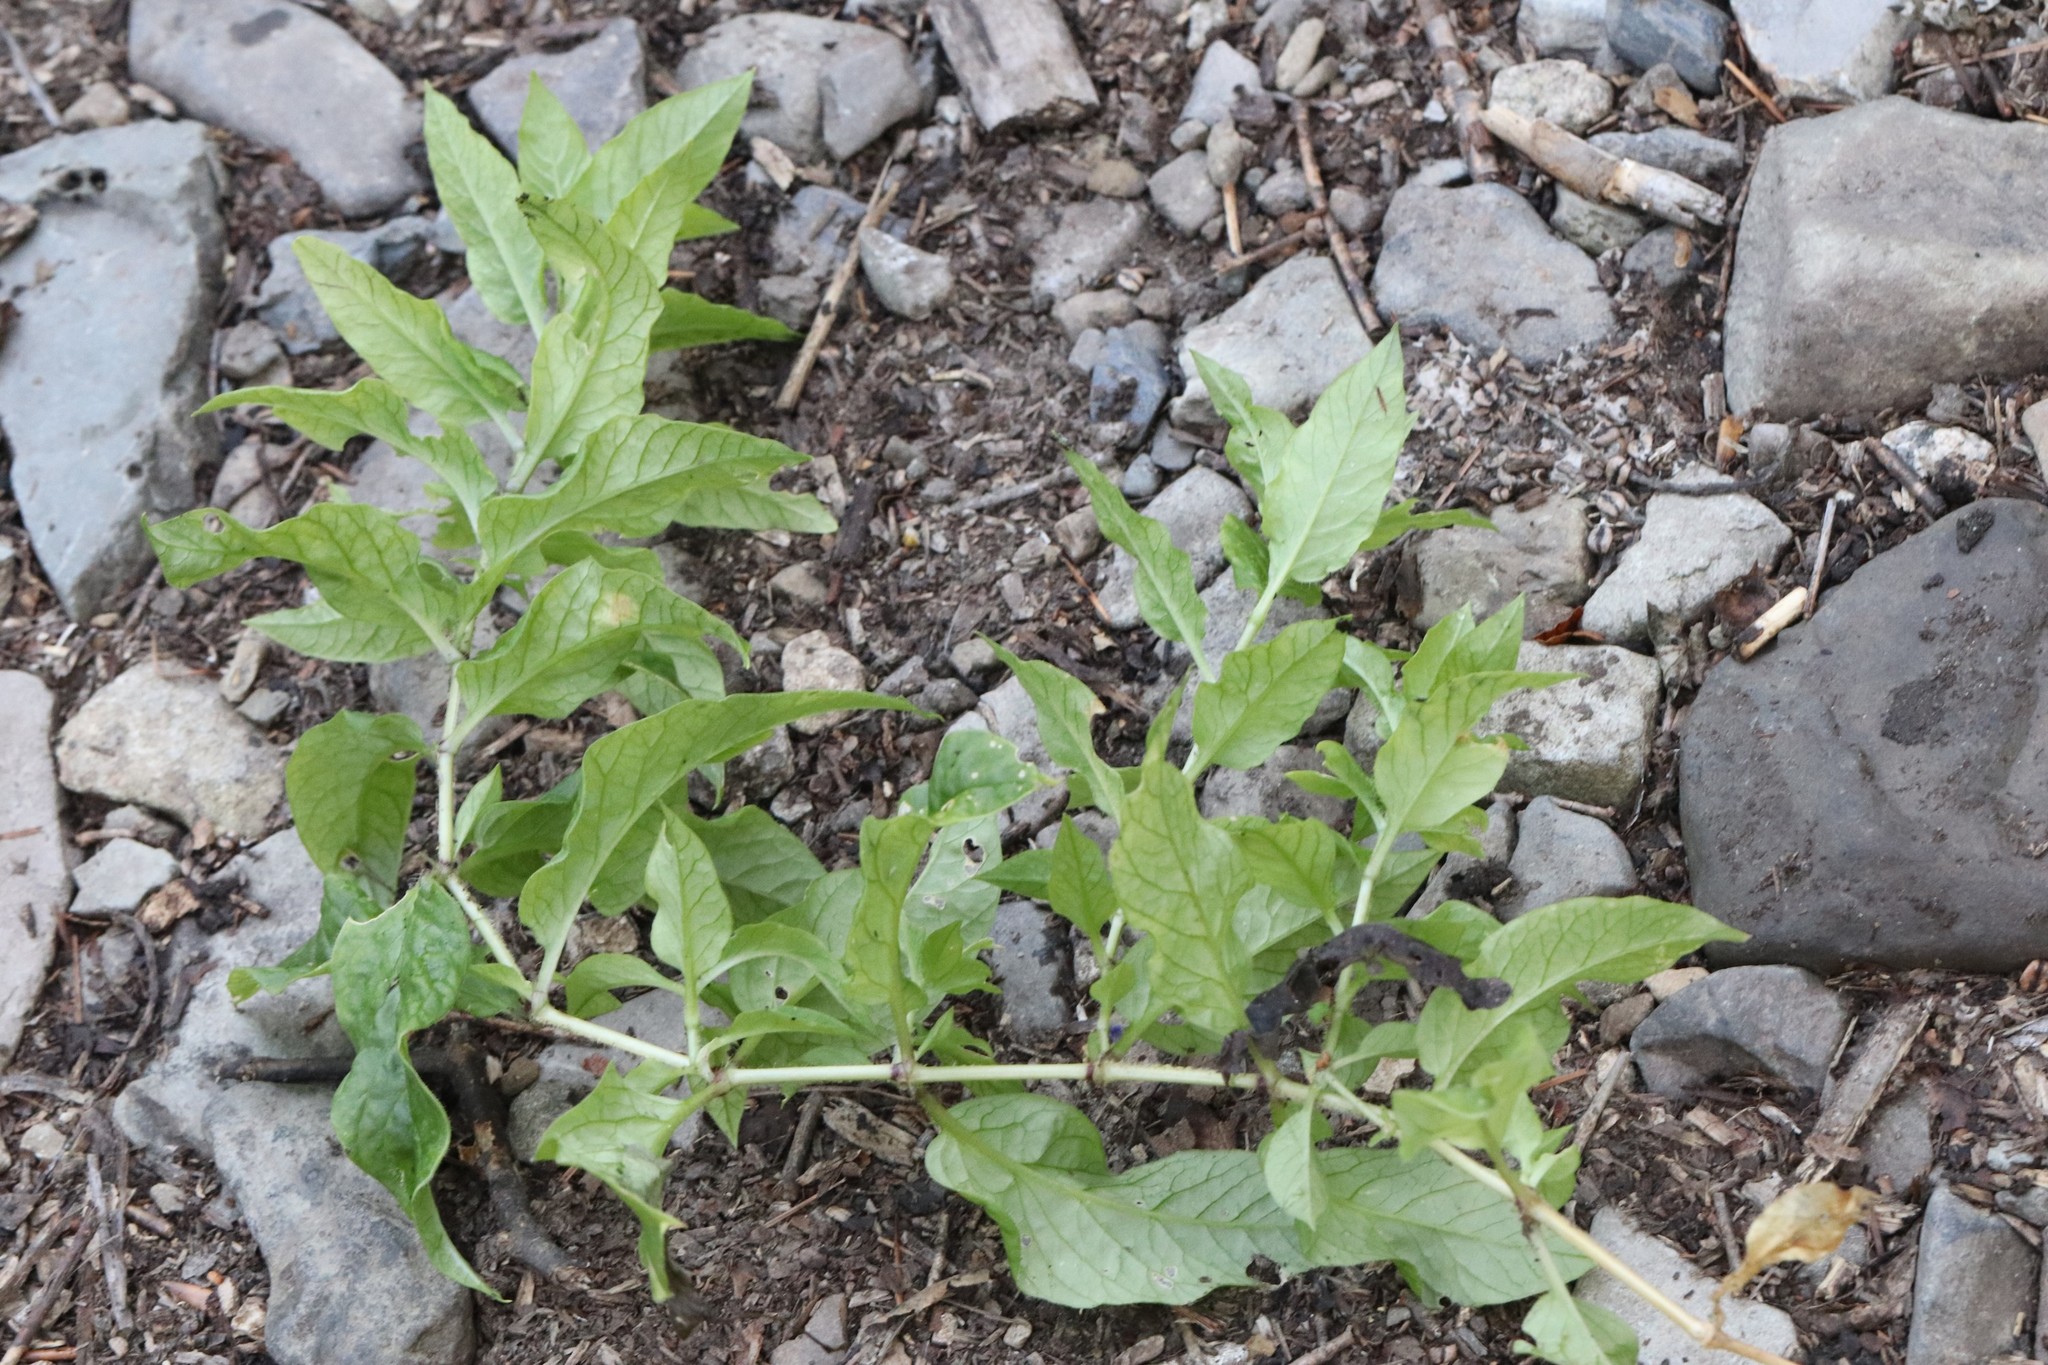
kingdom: Plantae
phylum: Tracheophyta
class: Magnoliopsida
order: Caryophyllales
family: Caryophyllaceae
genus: Stellaria
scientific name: Stellaria bungeana
